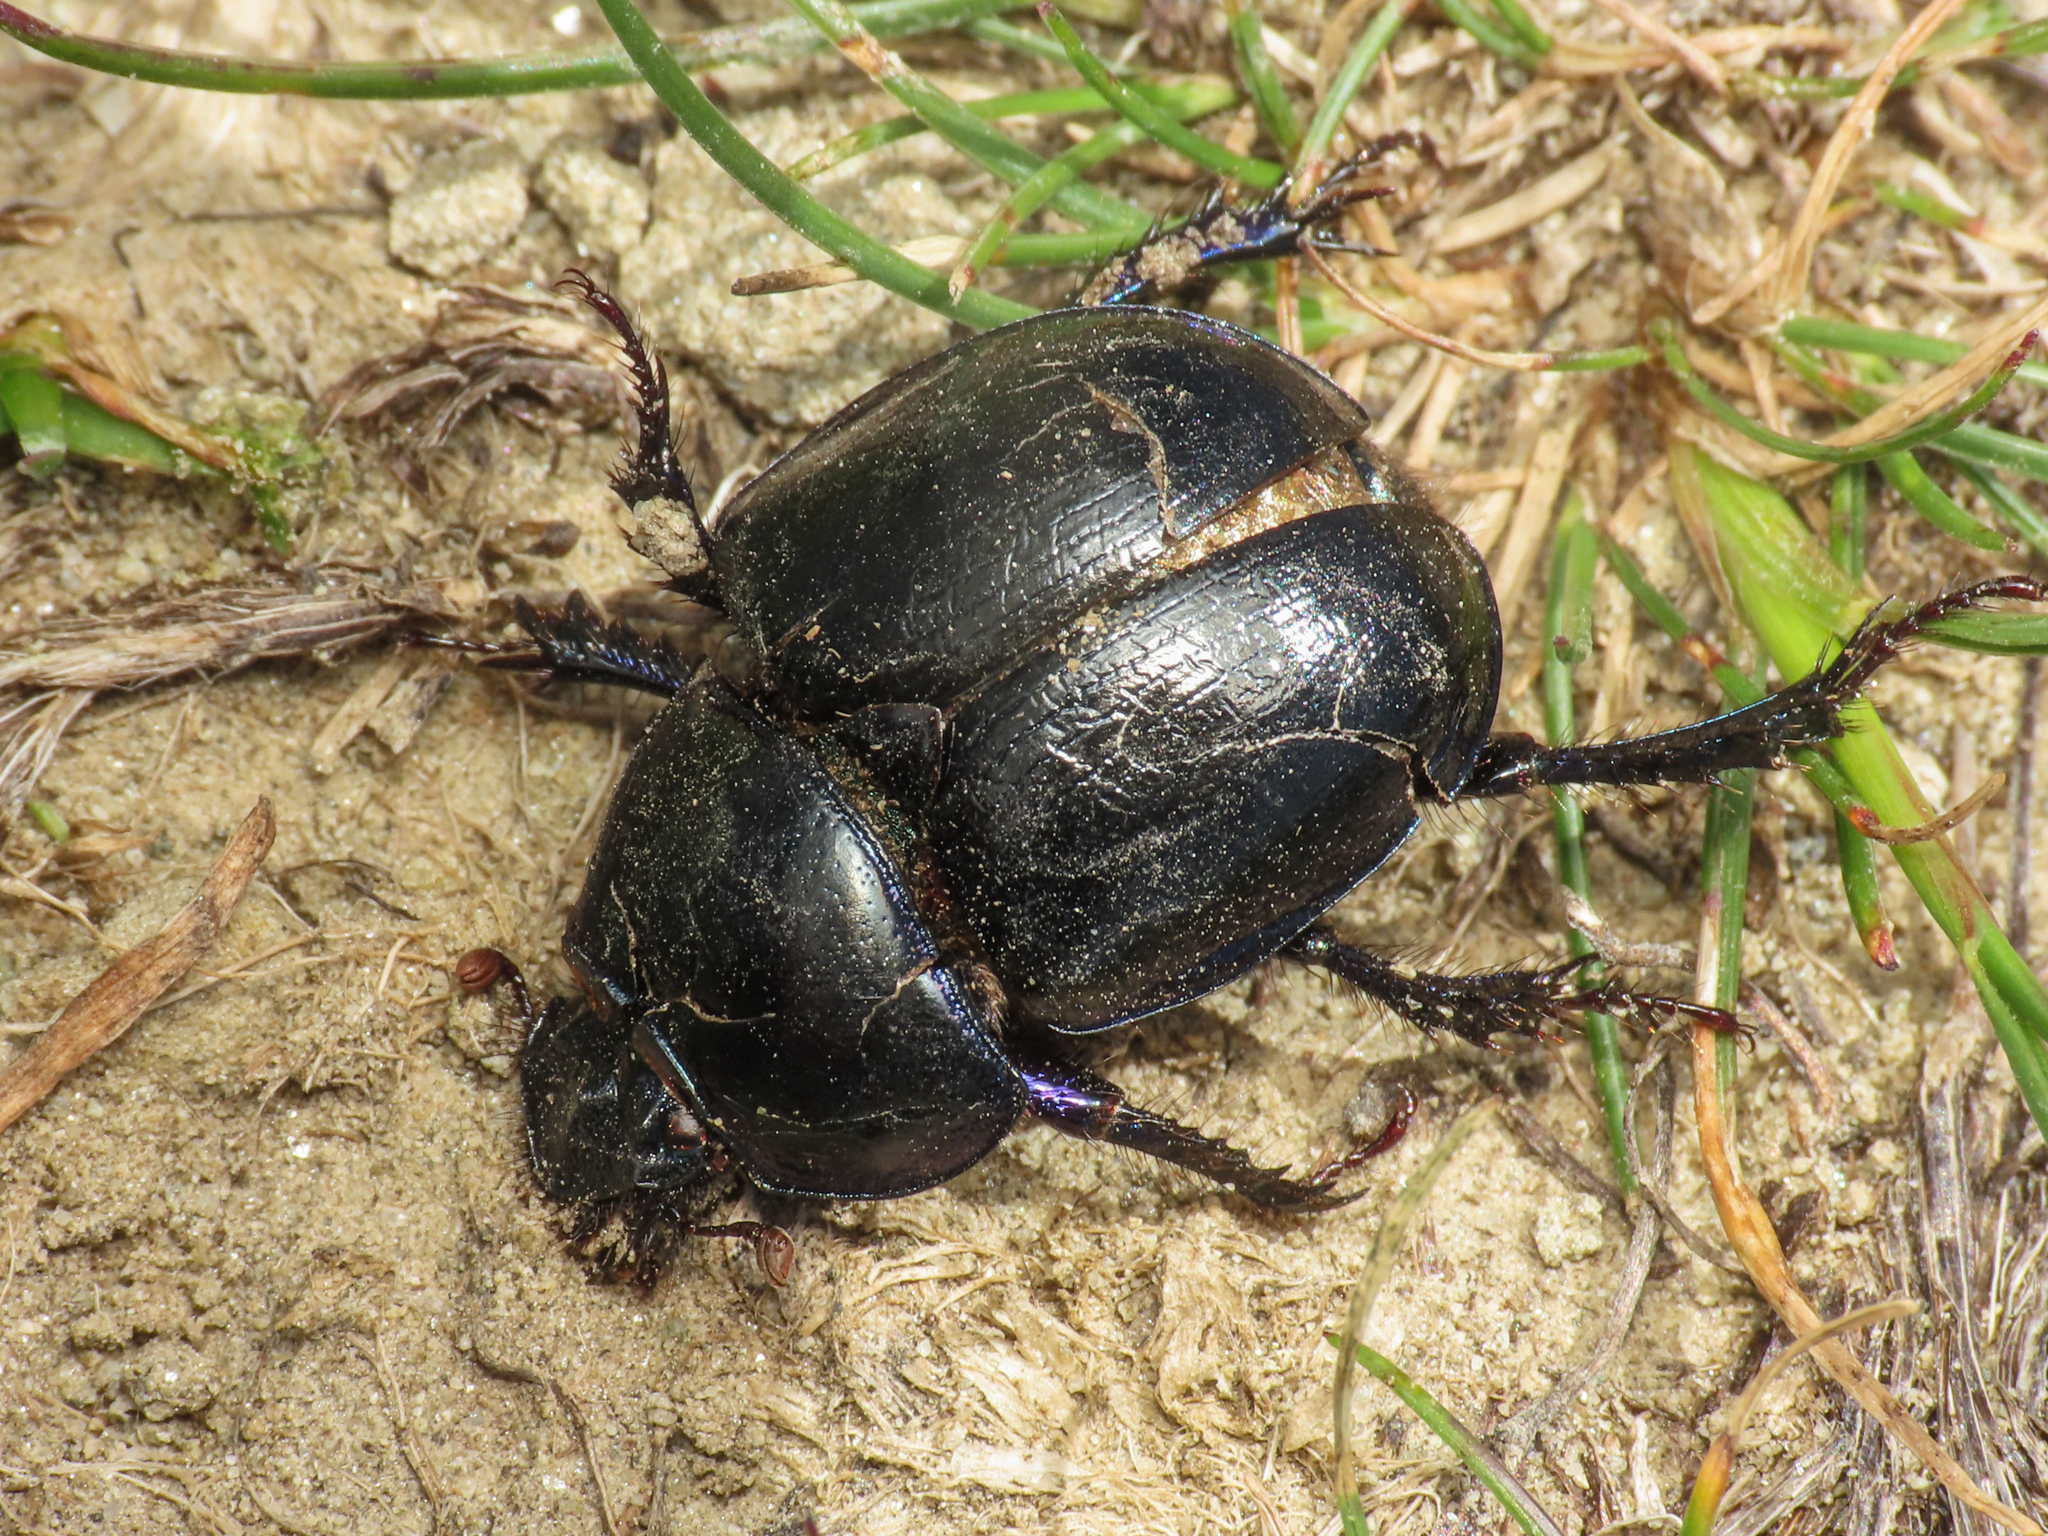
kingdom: Animalia
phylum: Arthropoda
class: Insecta
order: Coleoptera
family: Geotrupidae
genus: Anoplotrupes
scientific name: Anoplotrupes stercorosus
